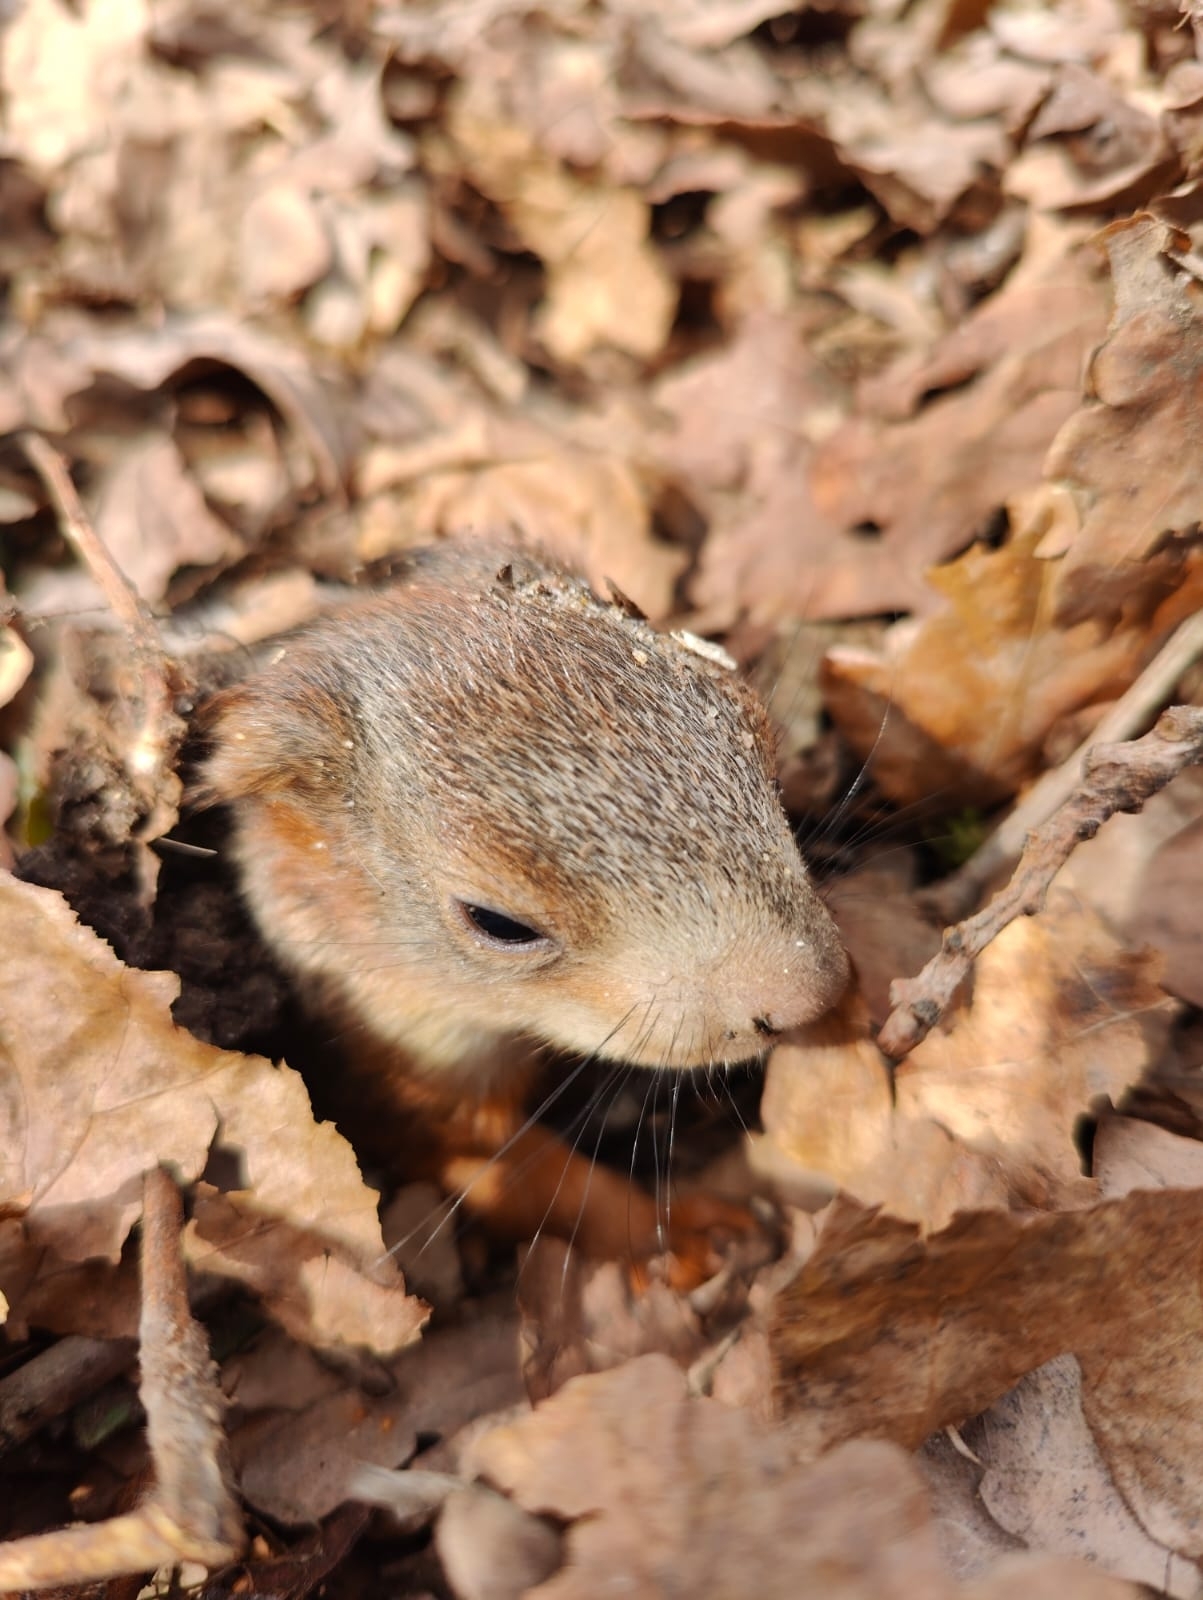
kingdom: Animalia
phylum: Chordata
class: Mammalia
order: Rodentia
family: Sciuridae
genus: Sciurus
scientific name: Sciurus vulgaris
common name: Eurasian red squirrel
